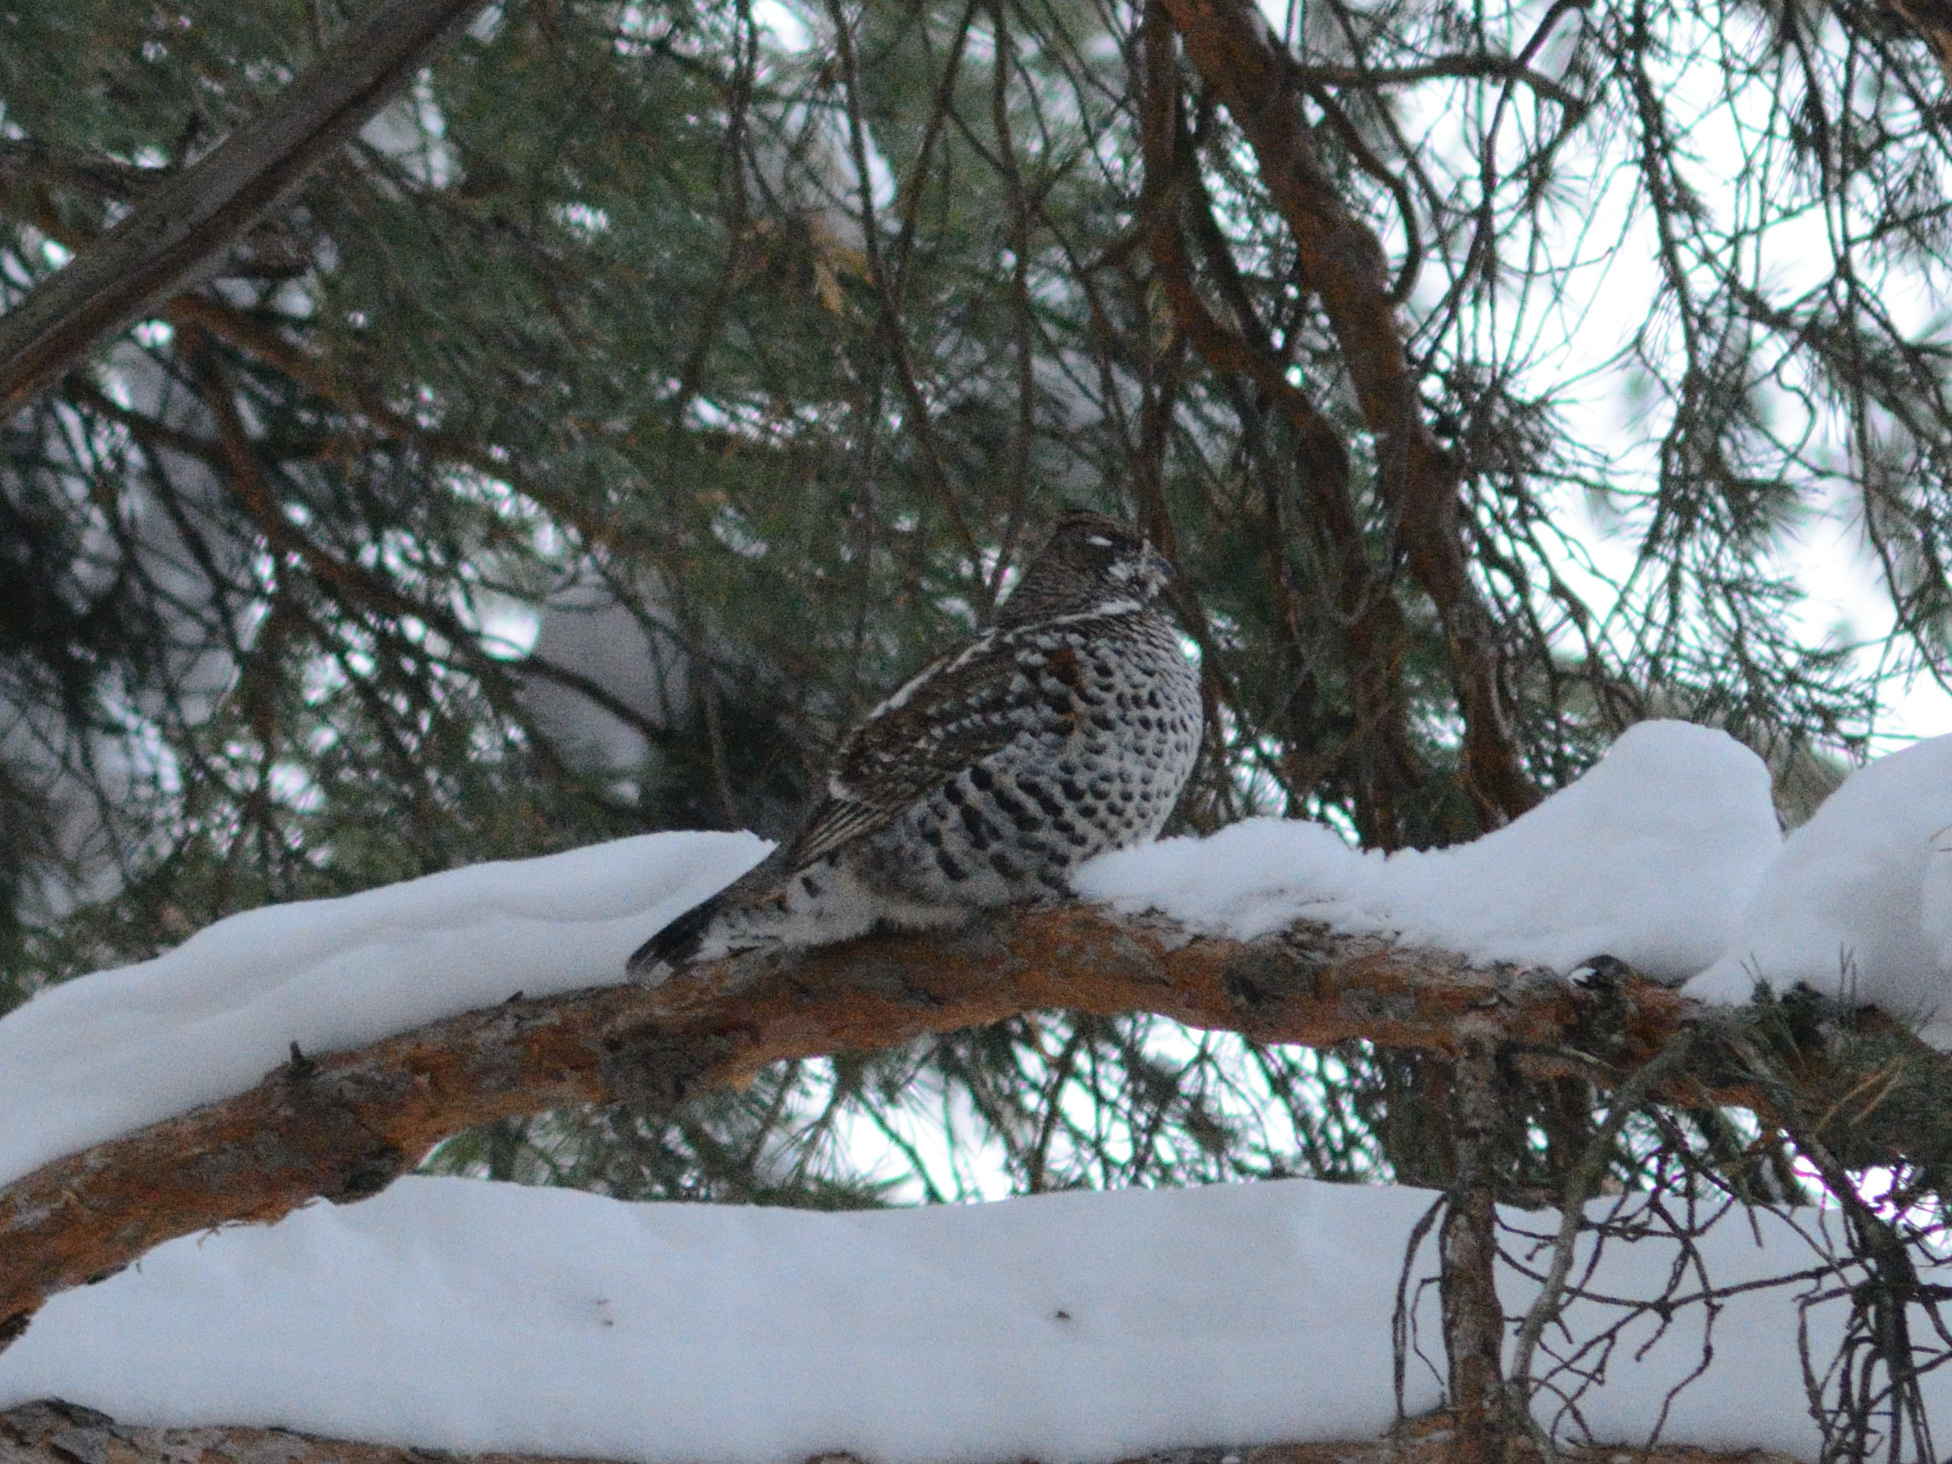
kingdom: Animalia
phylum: Chordata
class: Aves
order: Galliformes
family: Phasianidae
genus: Tetrastes
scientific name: Tetrastes bonasia
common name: Hazel grouse
